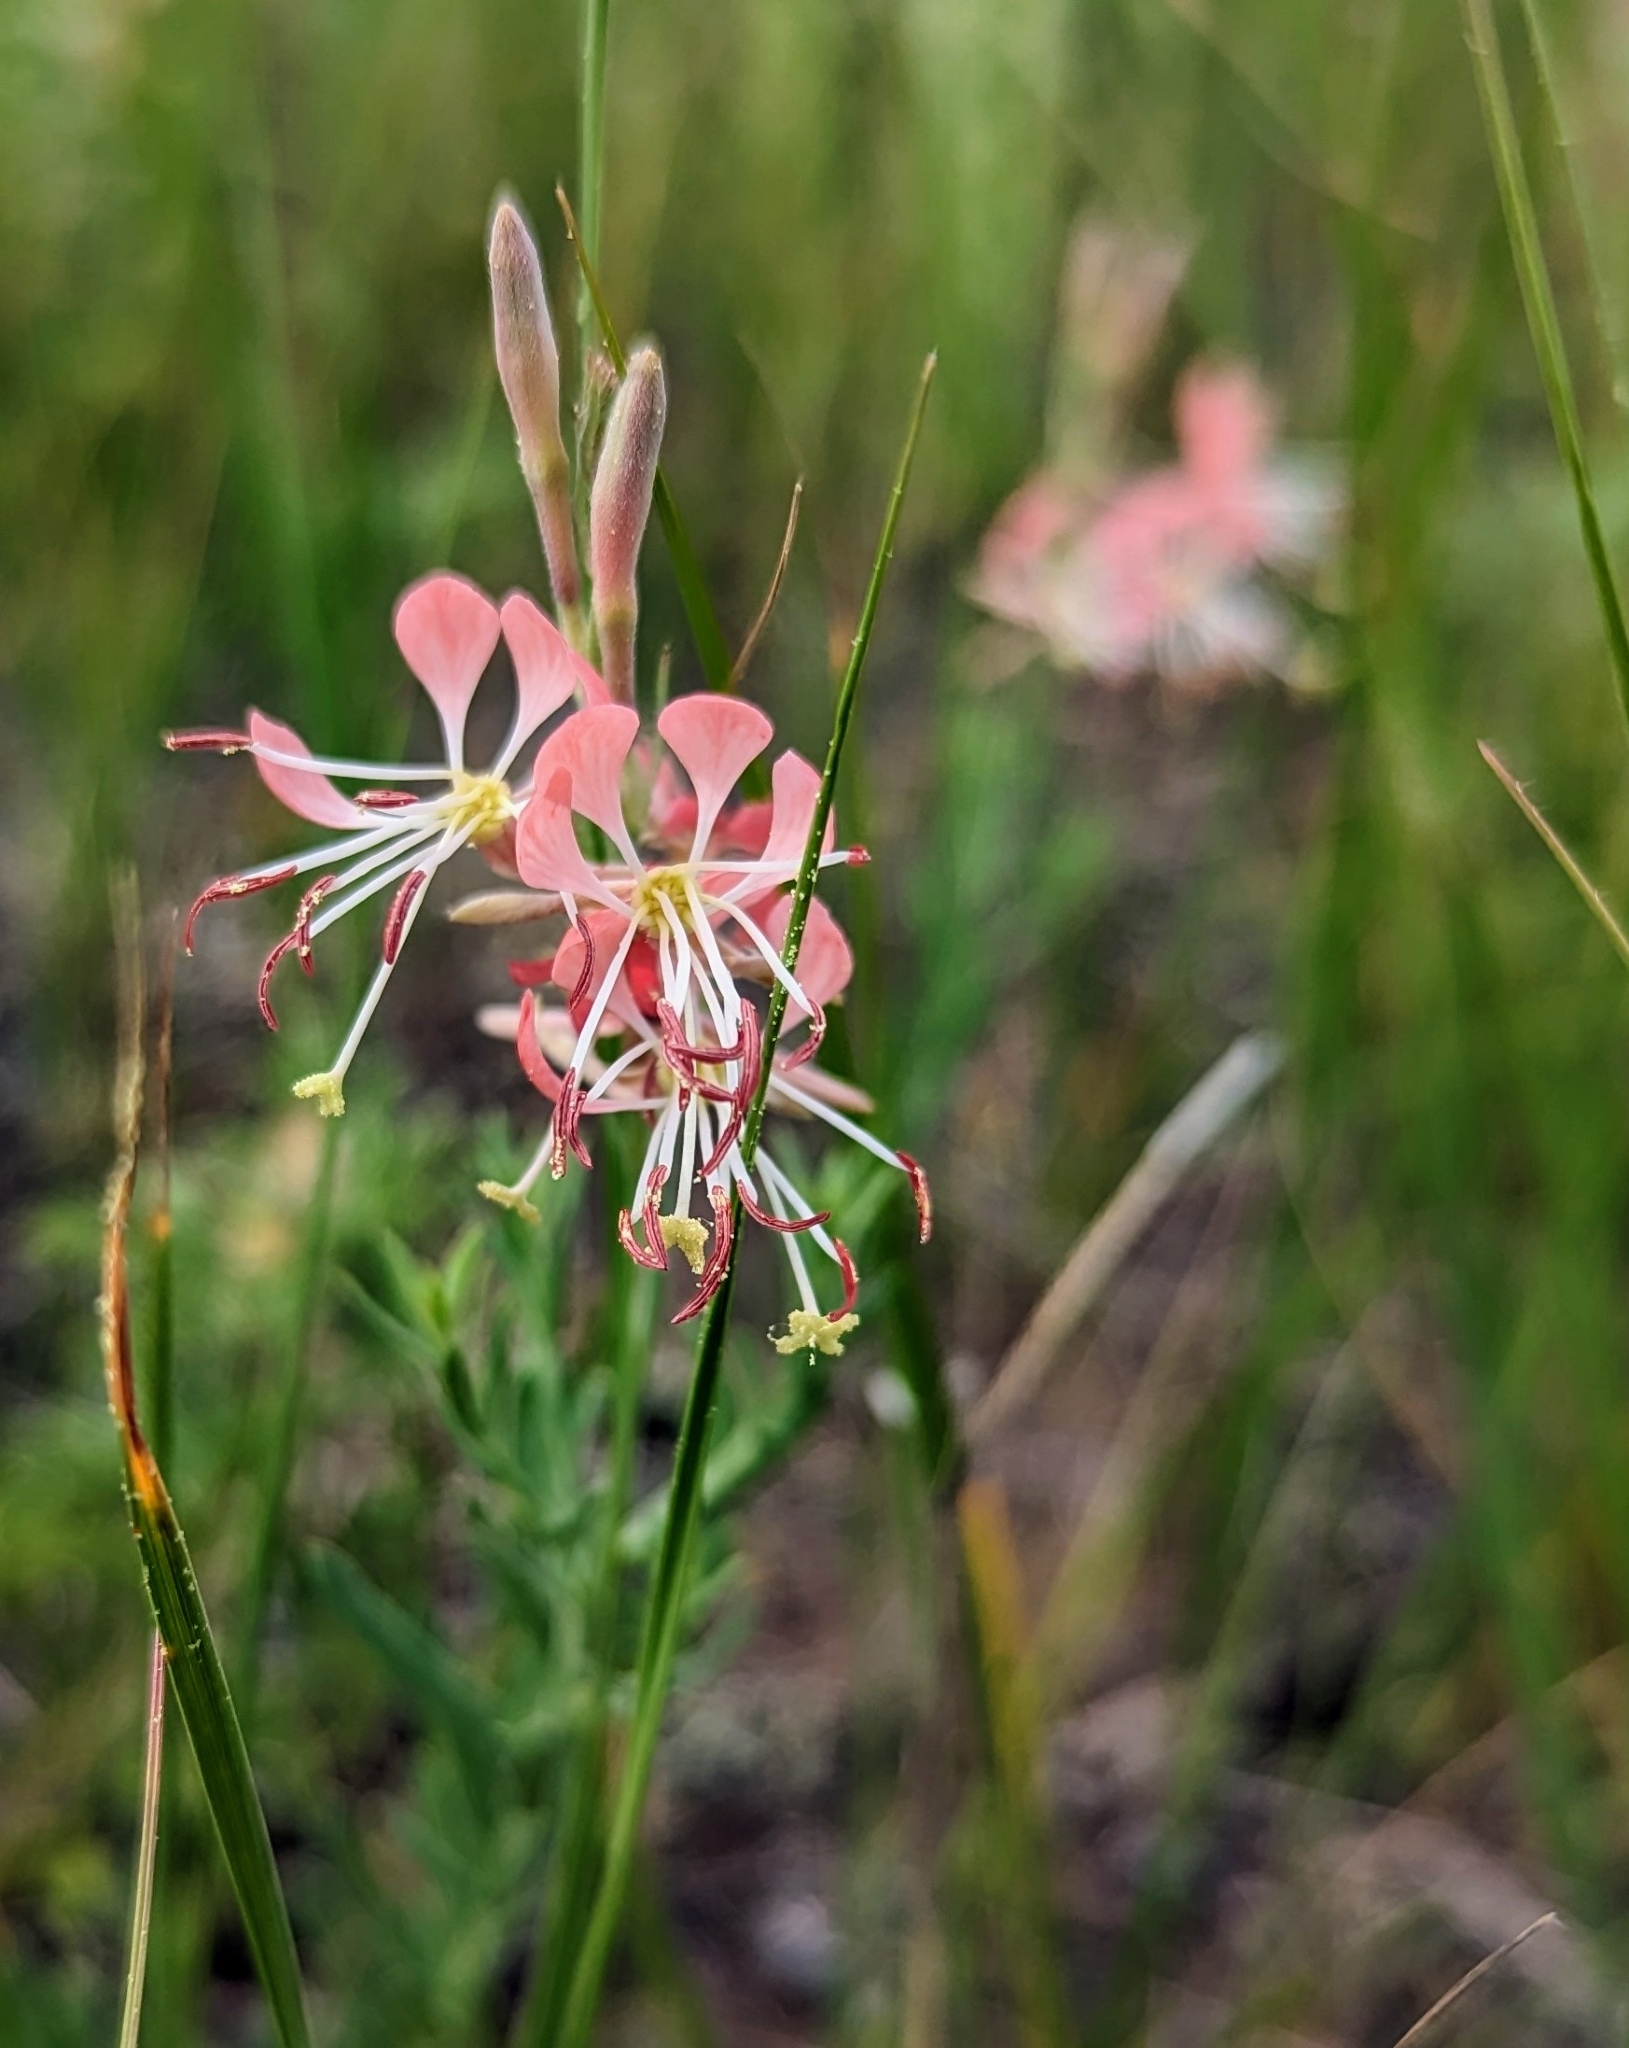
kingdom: Plantae
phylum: Tracheophyta
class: Magnoliopsida
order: Myrtales
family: Onagraceae
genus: Oenothera
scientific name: Oenothera suffrutescens
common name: Scarlet beeblossom
